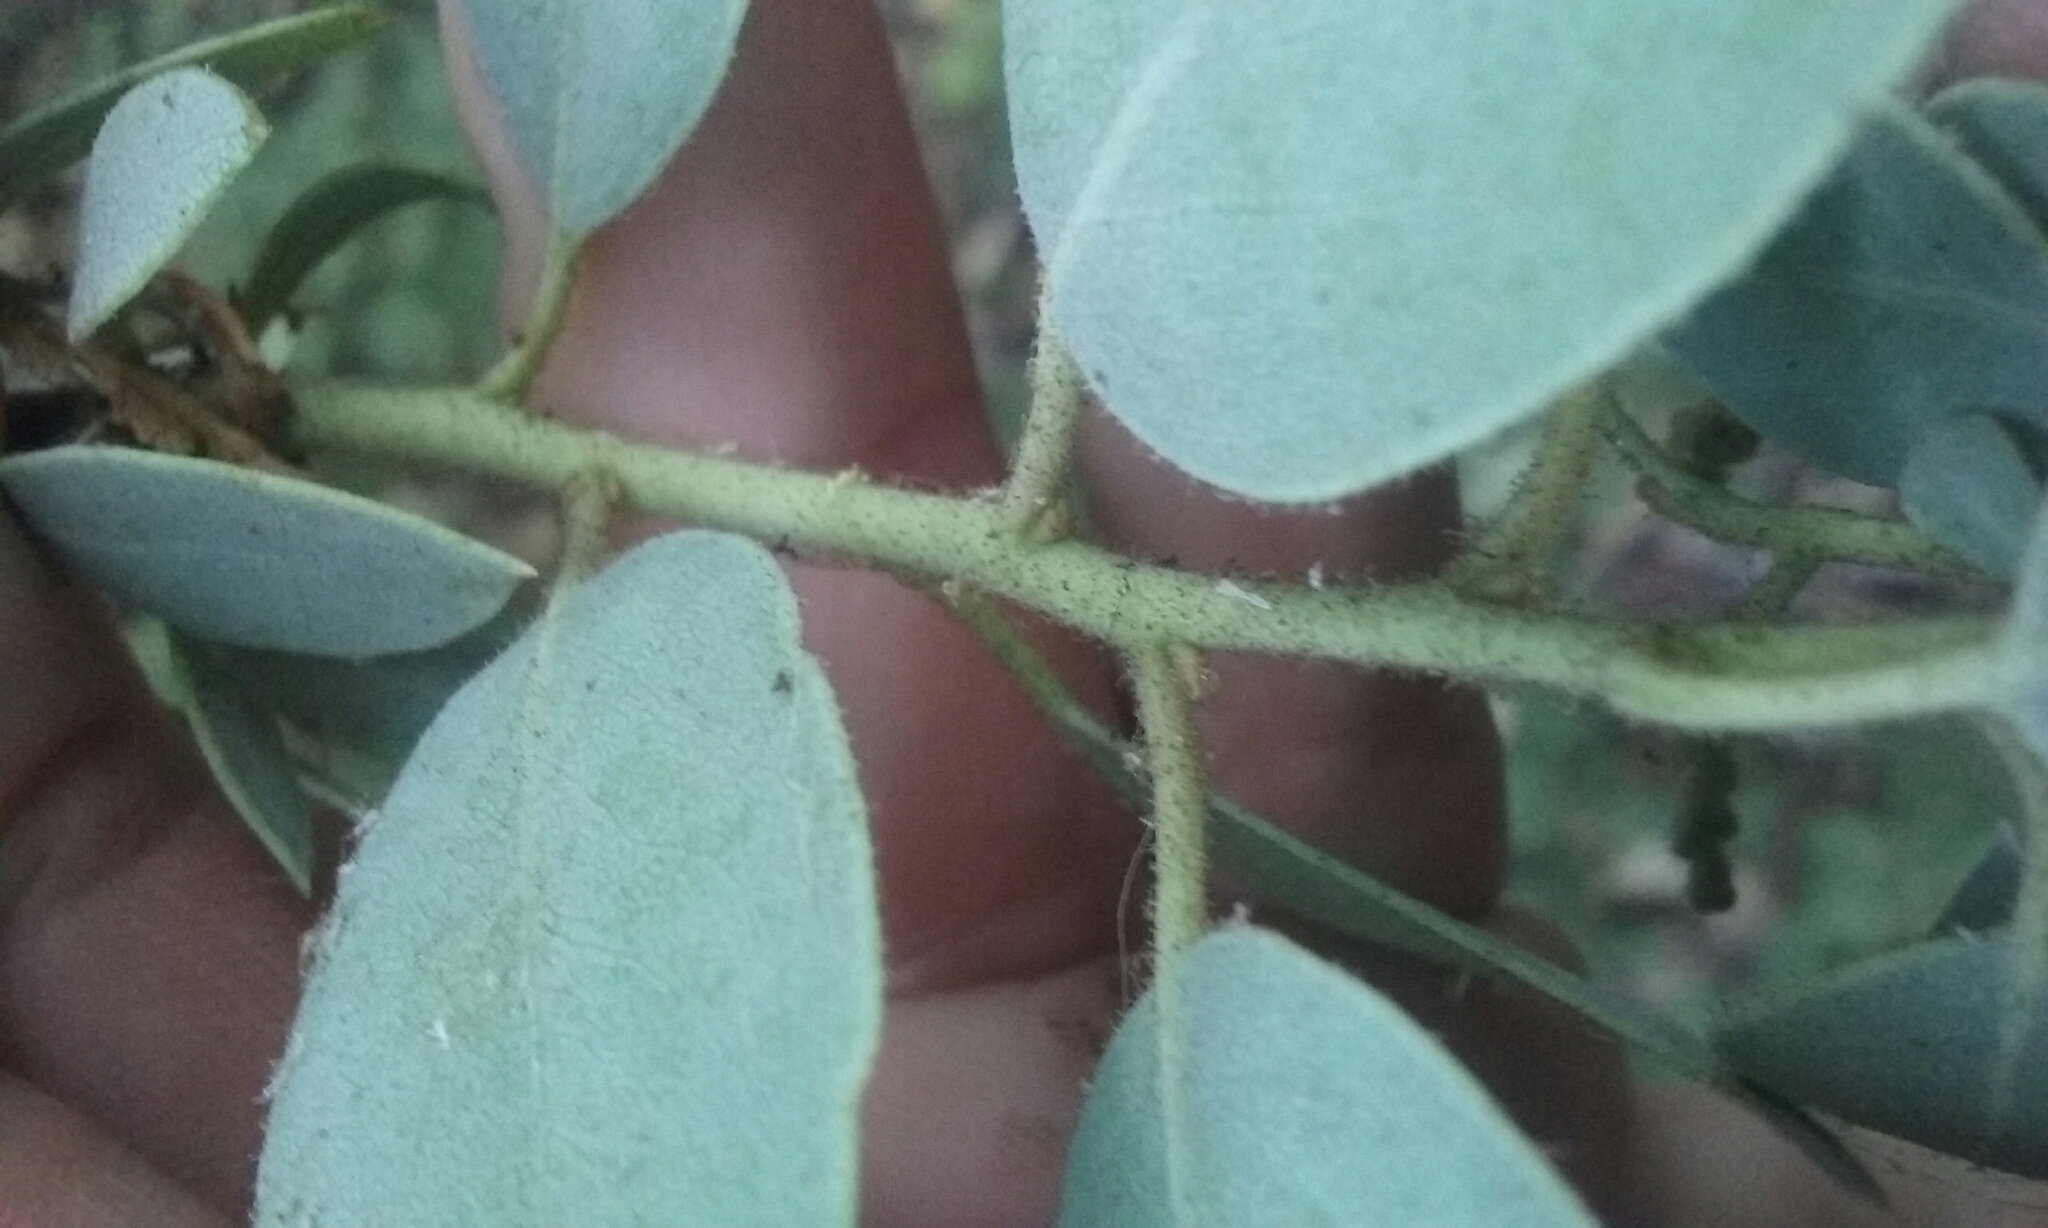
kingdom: Plantae
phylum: Tracheophyta
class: Magnoliopsida
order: Ericales
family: Ericaceae
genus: Arctostaphylos
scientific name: Arctostaphylos viscida
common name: White-leaf manzanita
